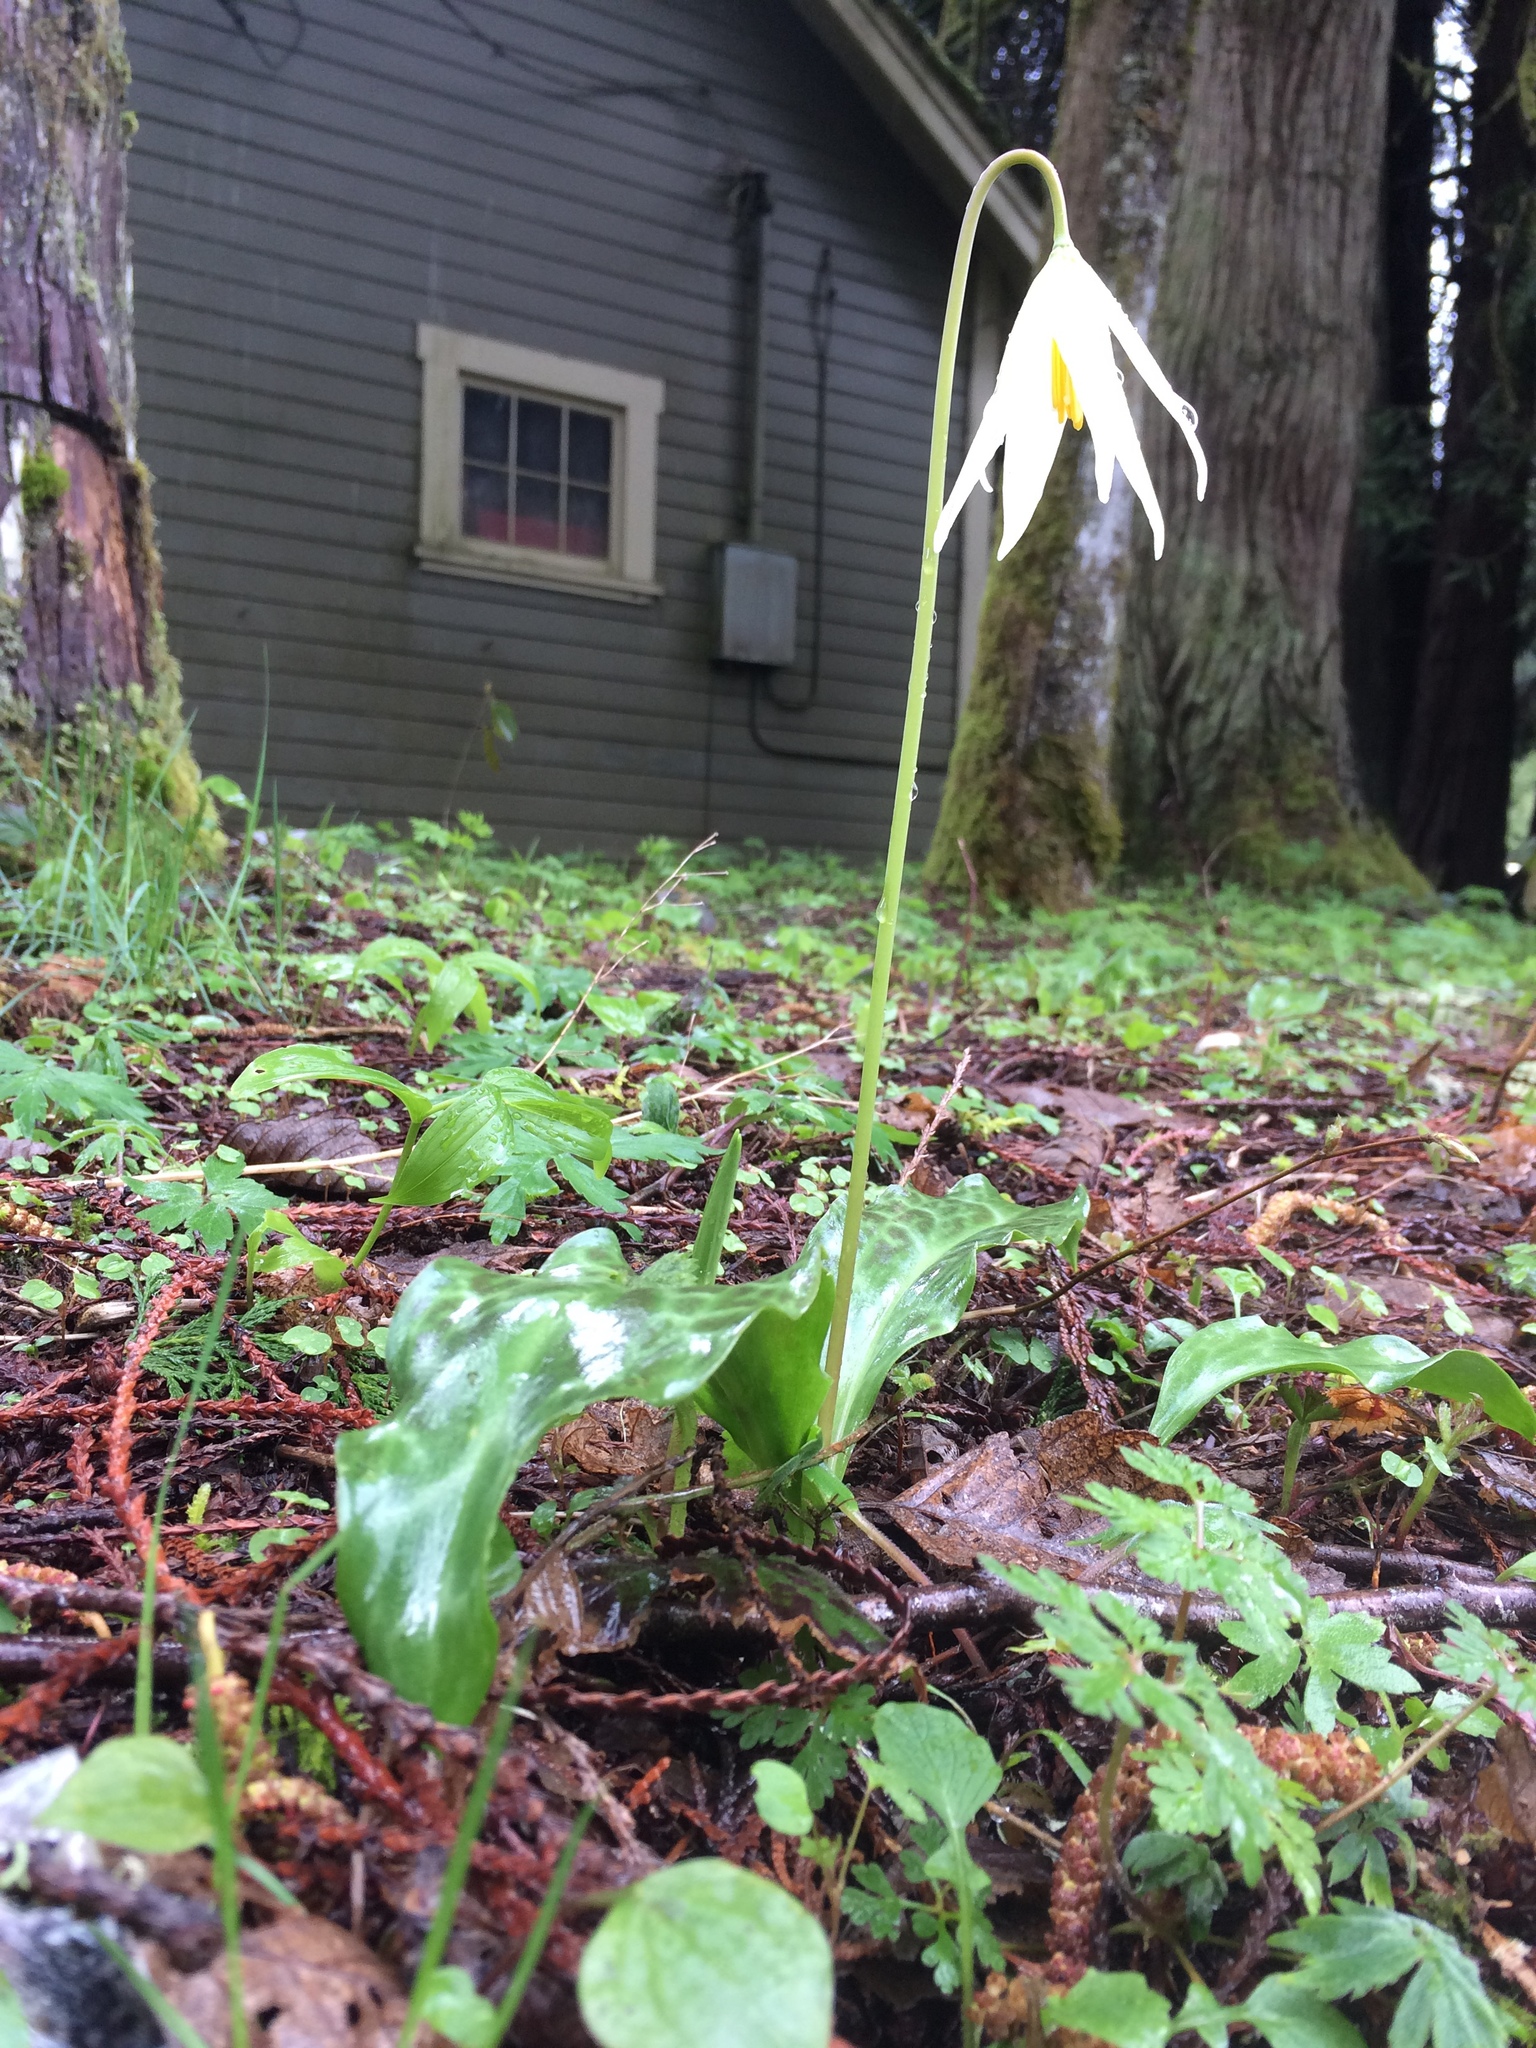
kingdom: Plantae
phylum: Tracheophyta
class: Liliopsida
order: Liliales
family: Liliaceae
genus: Erythronium
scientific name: Erythronium oregonum
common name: Giant adder's-tongue
